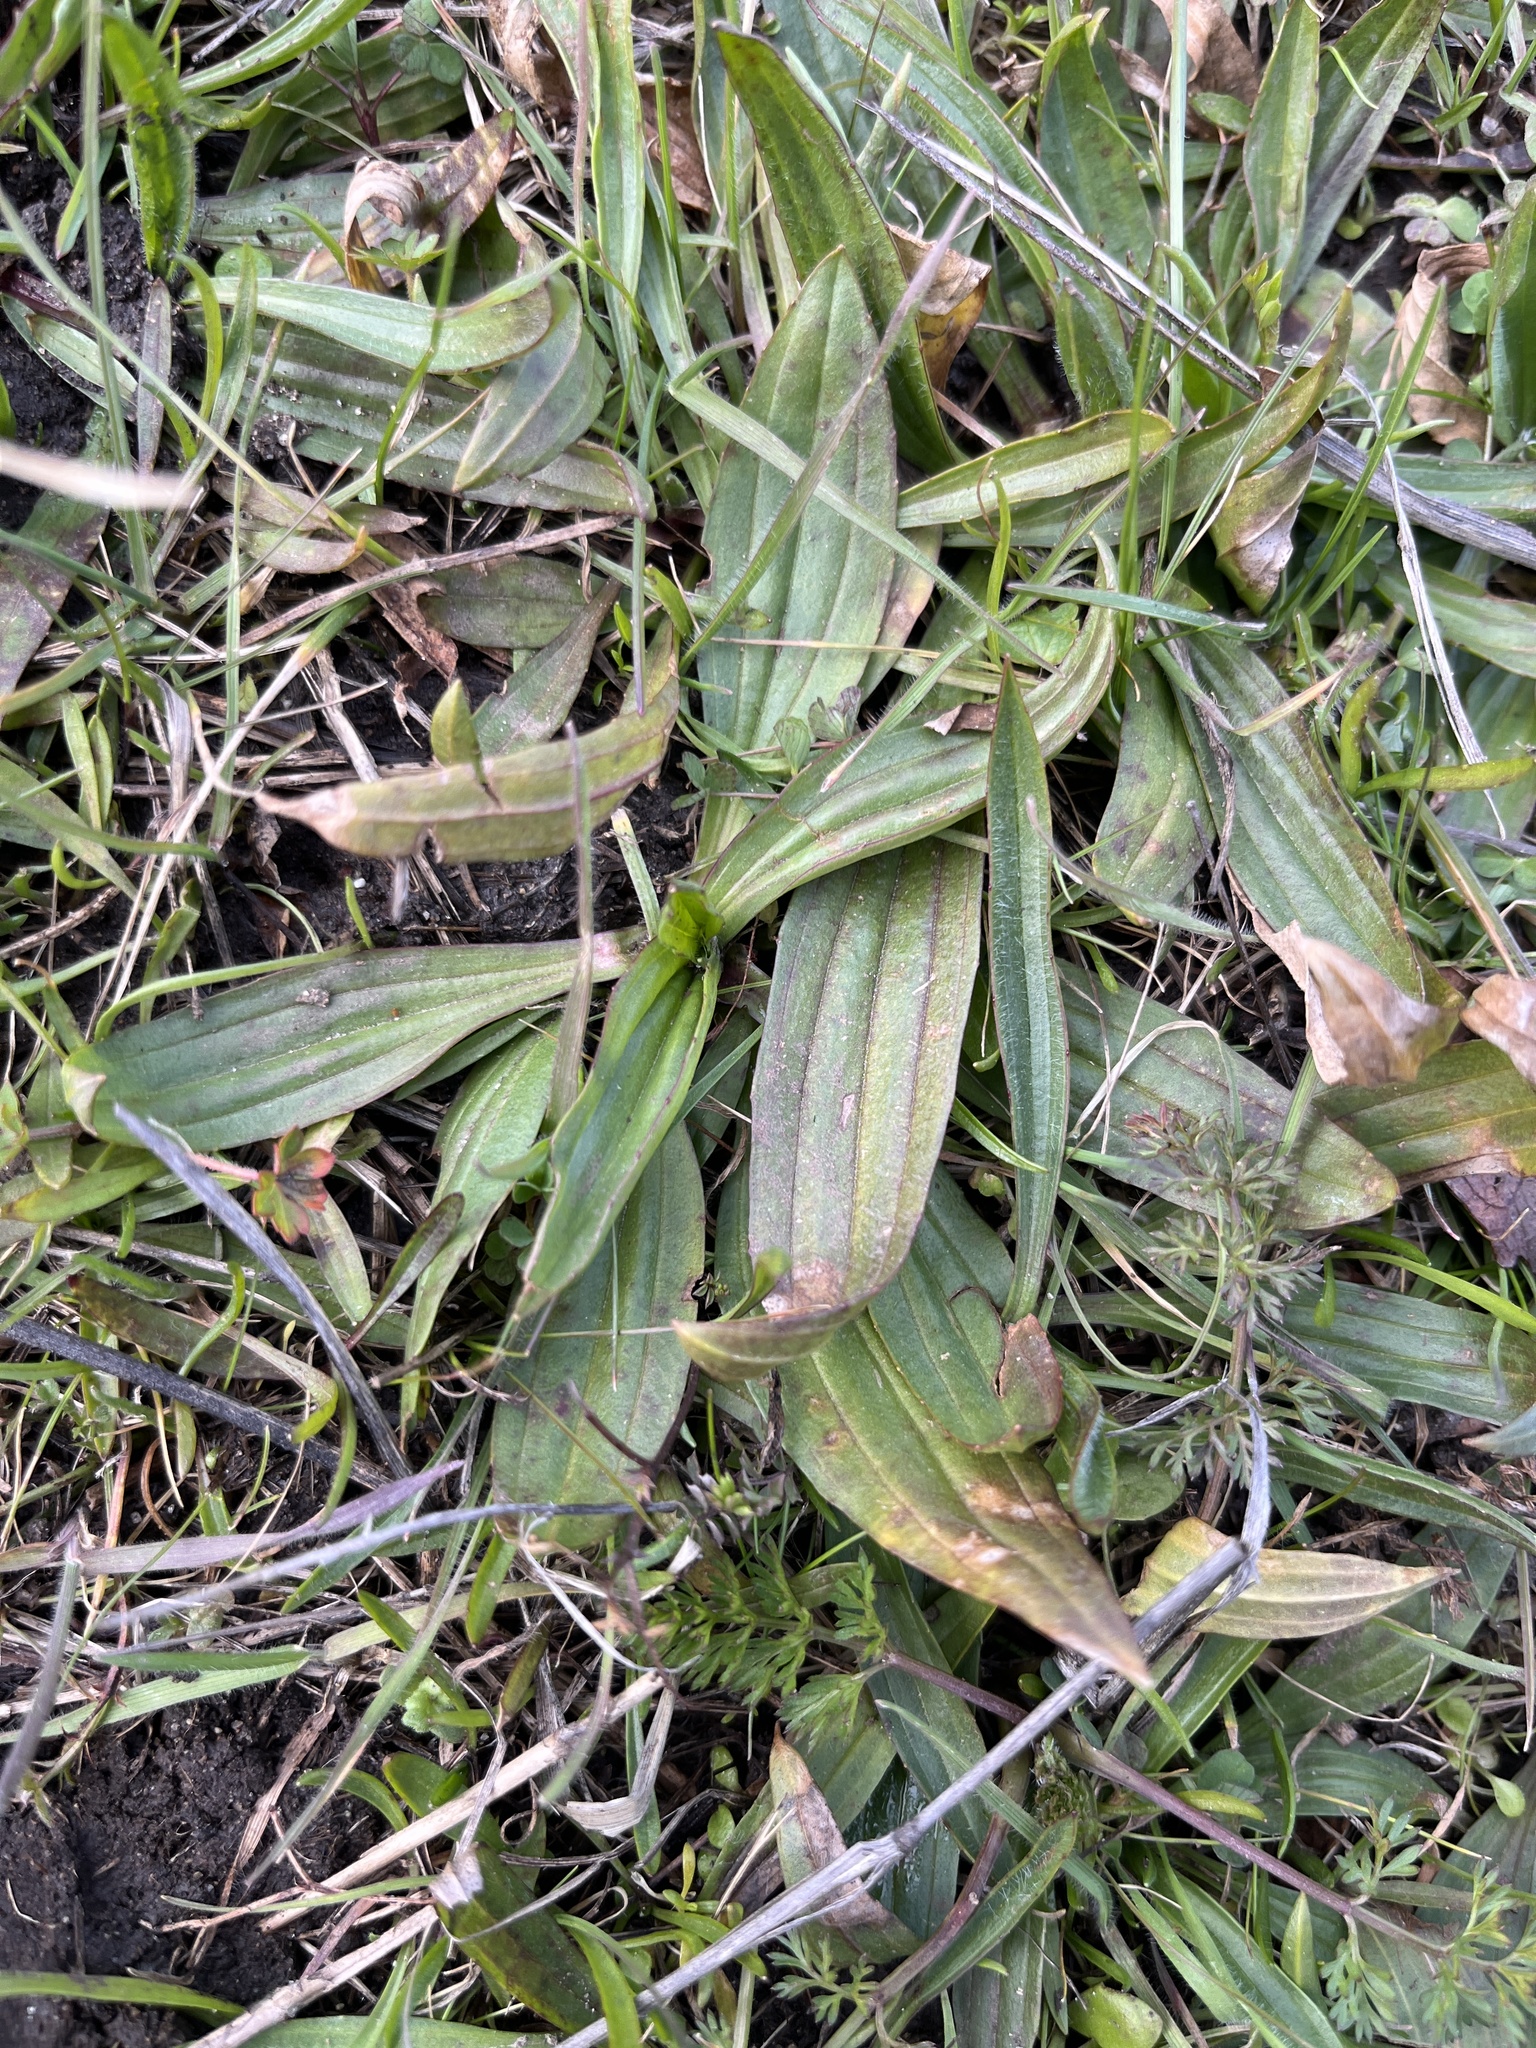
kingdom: Plantae
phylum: Tracheophyta
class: Magnoliopsida
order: Lamiales
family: Plantaginaceae
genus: Plantago
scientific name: Plantago lanceolata
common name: Ribwort plantain
